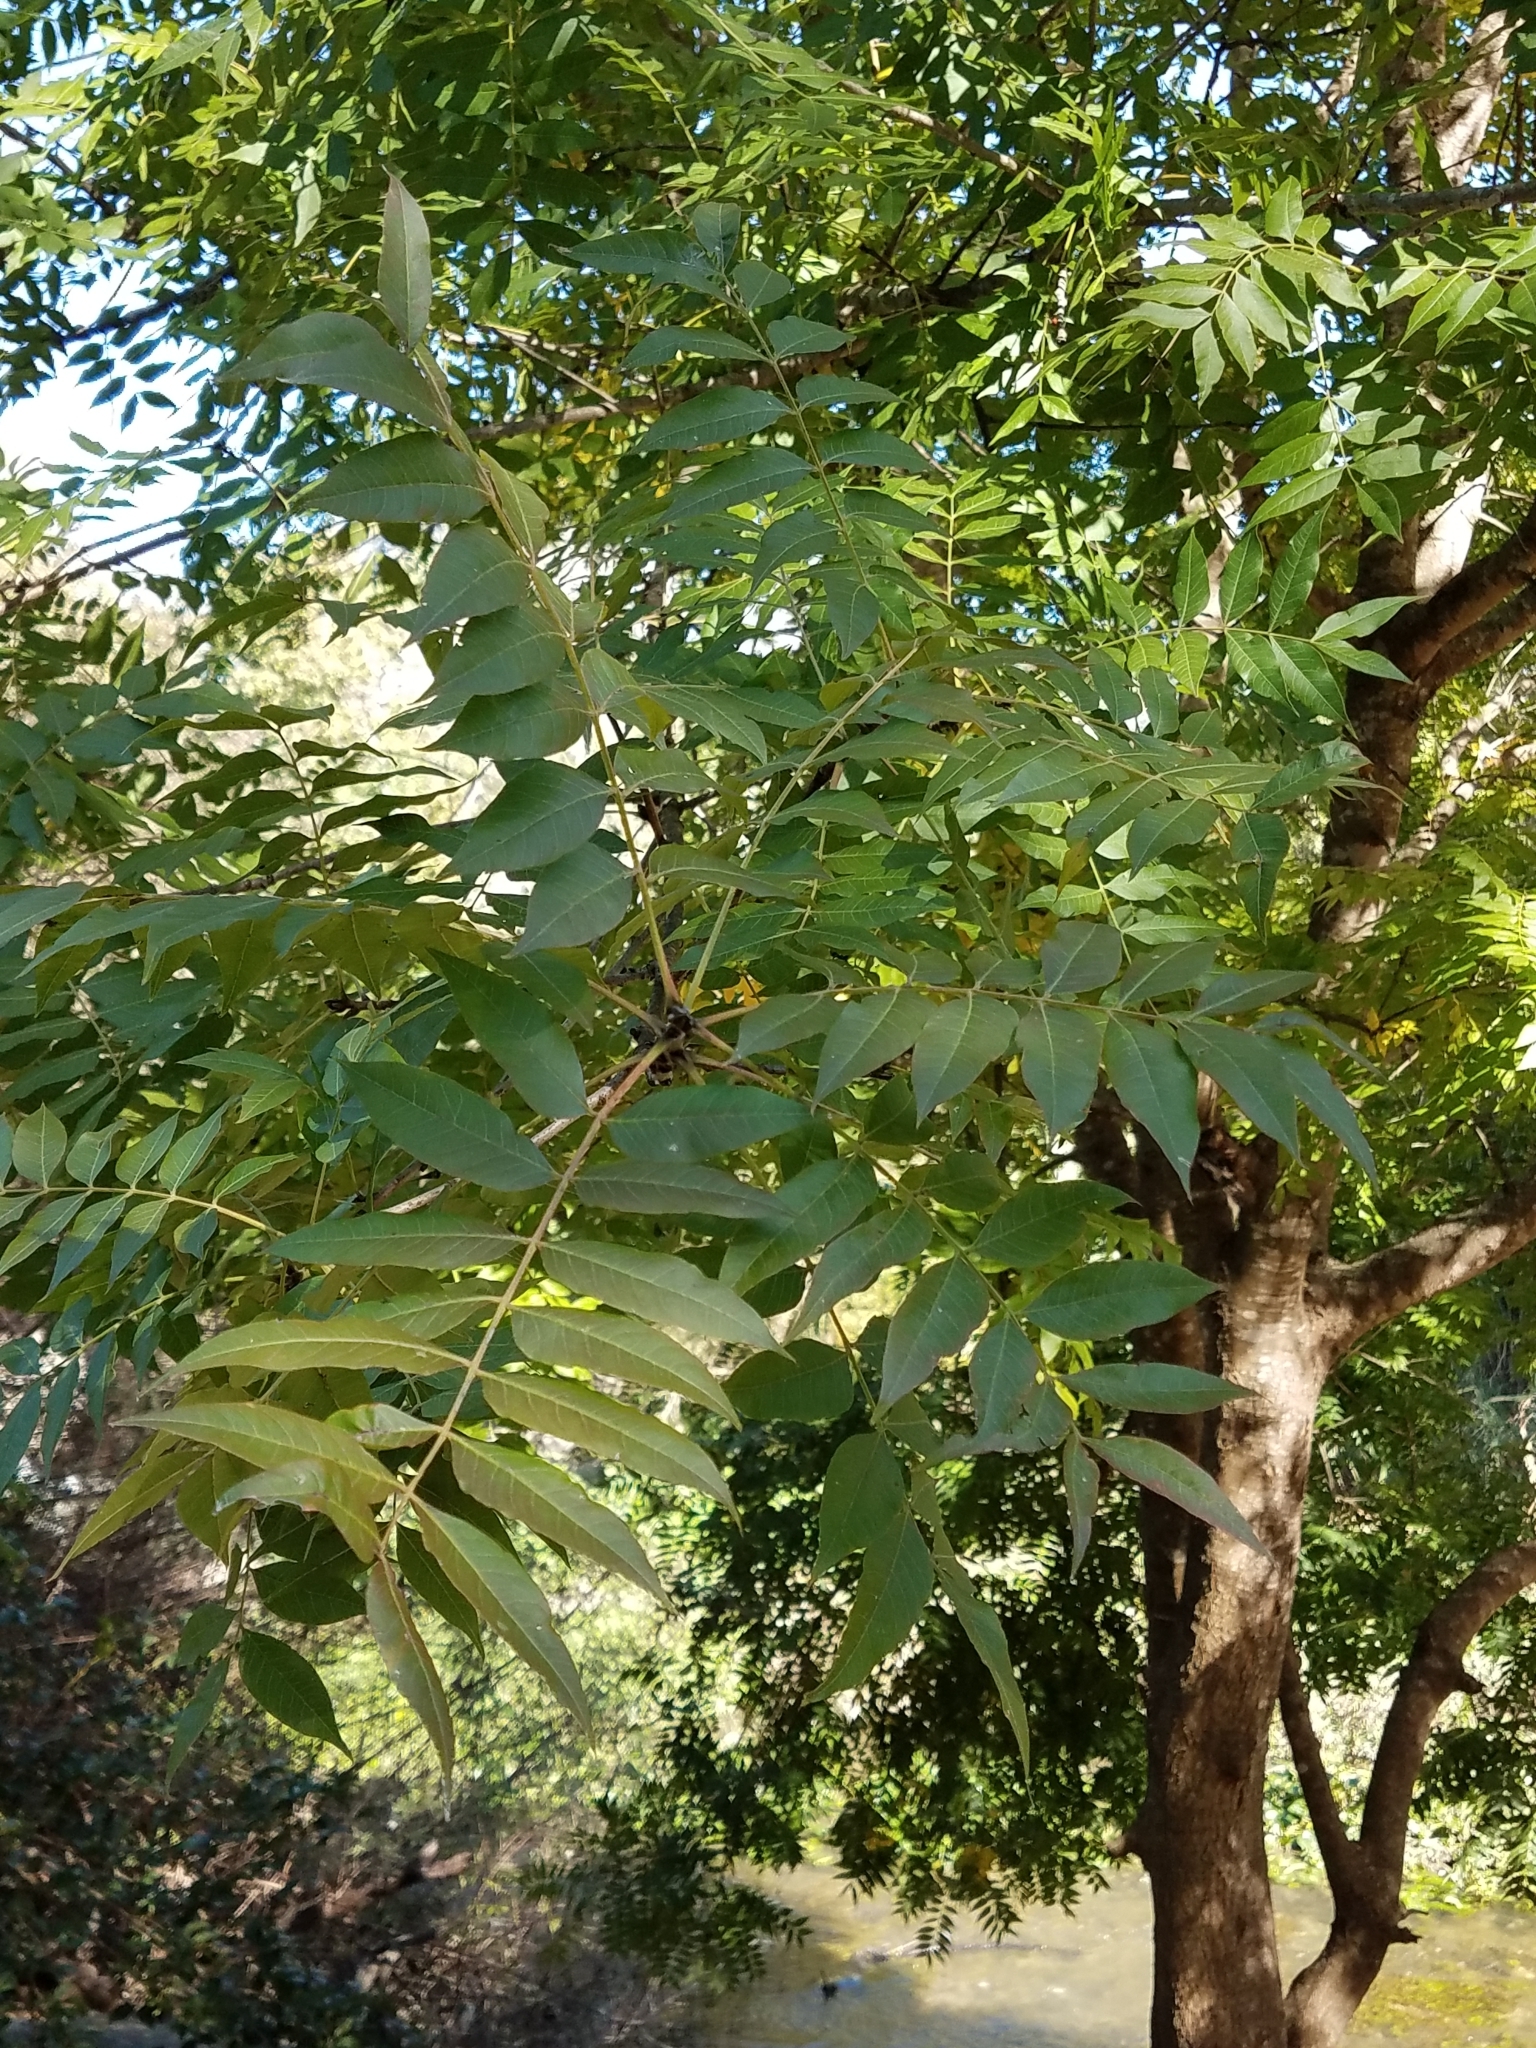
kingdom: Plantae
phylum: Tracheophyta
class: Magnoliopsida
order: Sapindales
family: Anacardiaceae
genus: Pistacia
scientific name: Pistacia chinensis
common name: Chinese pistache
